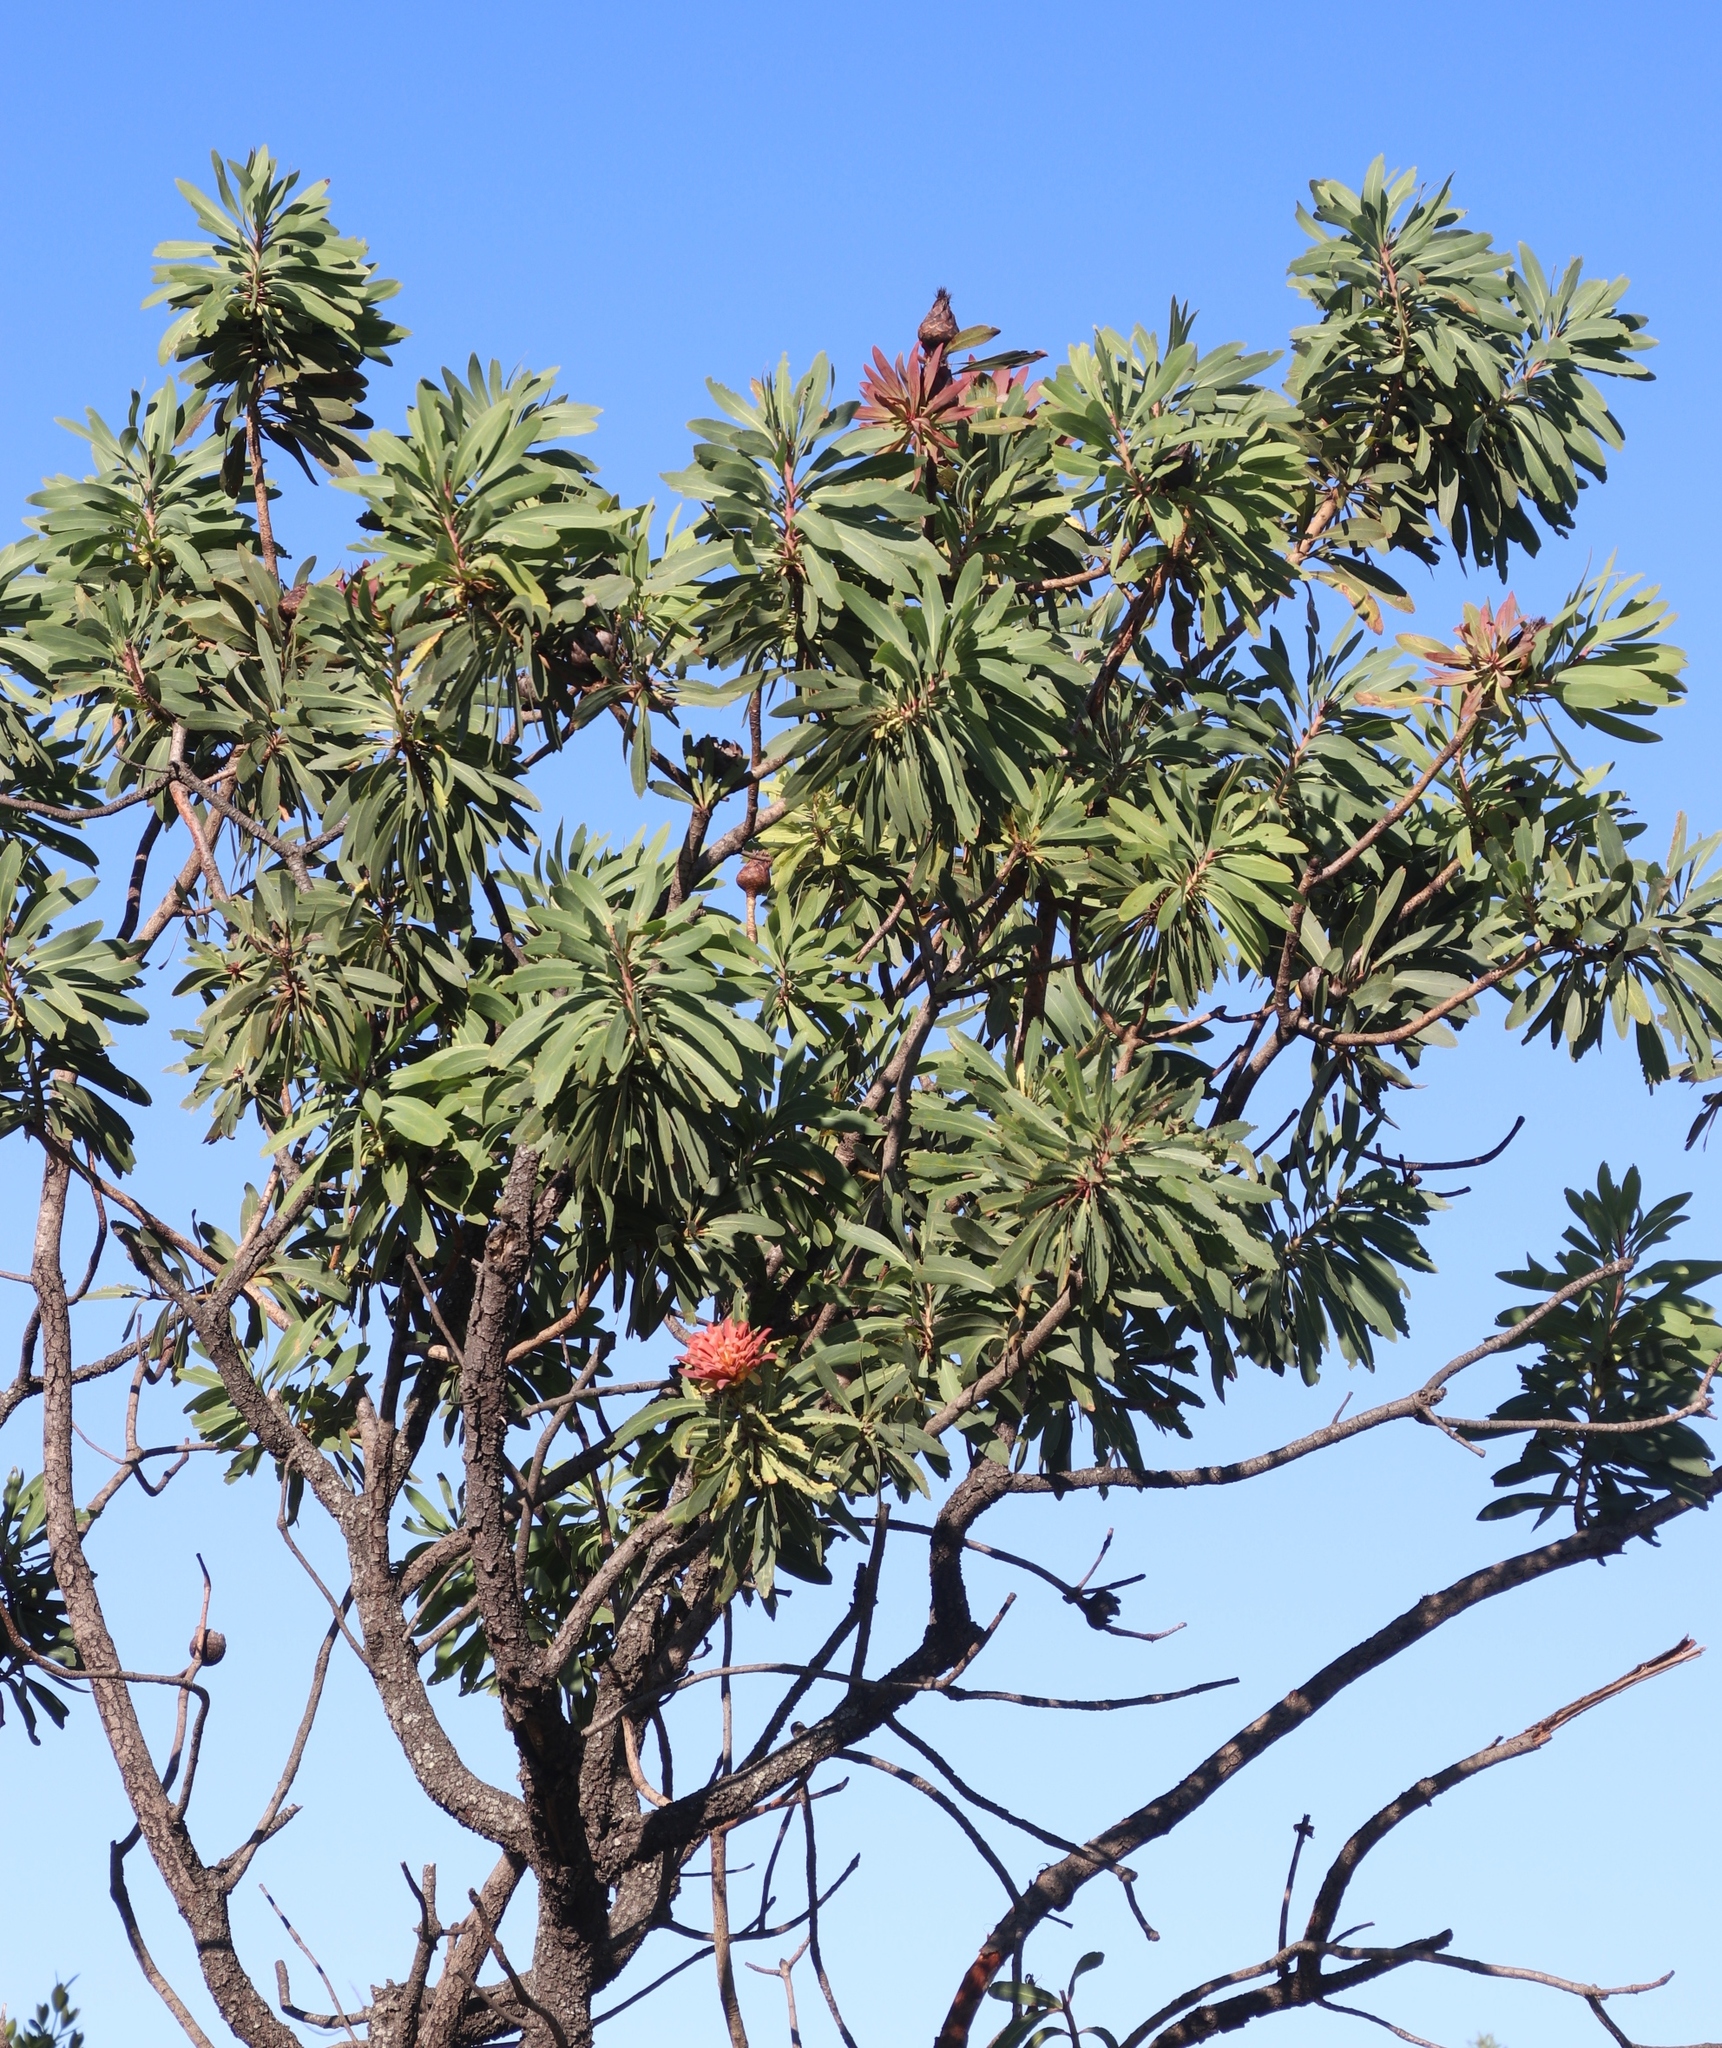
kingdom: Plantae
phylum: Tracheophyta
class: Magnoliopsida
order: Proteales
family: Proteaceae
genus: Protea
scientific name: Protea caffra
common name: Common sugarbush
